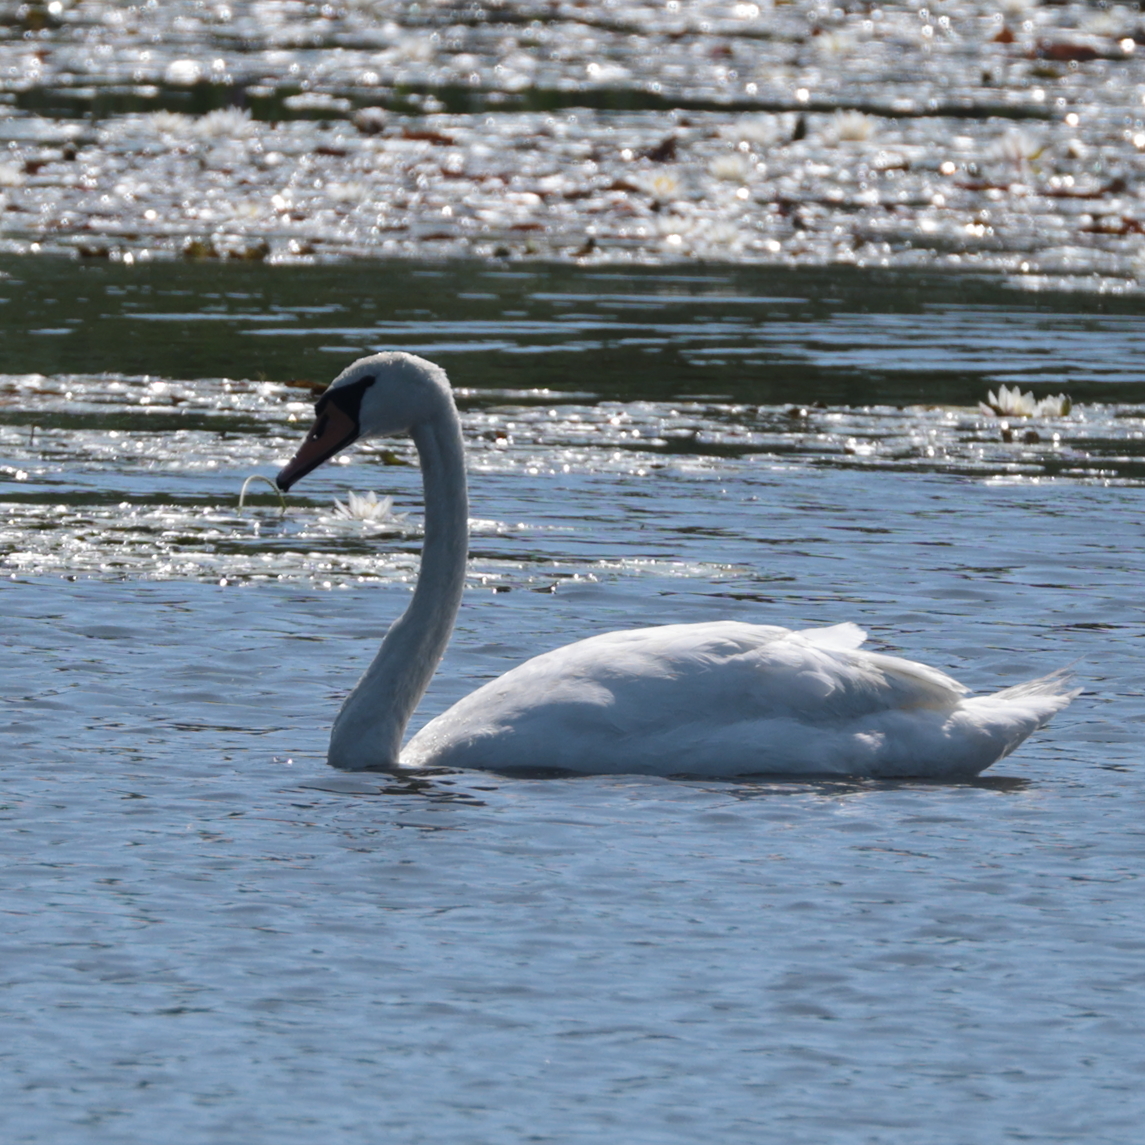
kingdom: Animalia
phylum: Chordata
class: Aves
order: Anseriformes
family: Anatidae
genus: Cygnus
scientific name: Cygnus olor
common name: Mute swan
